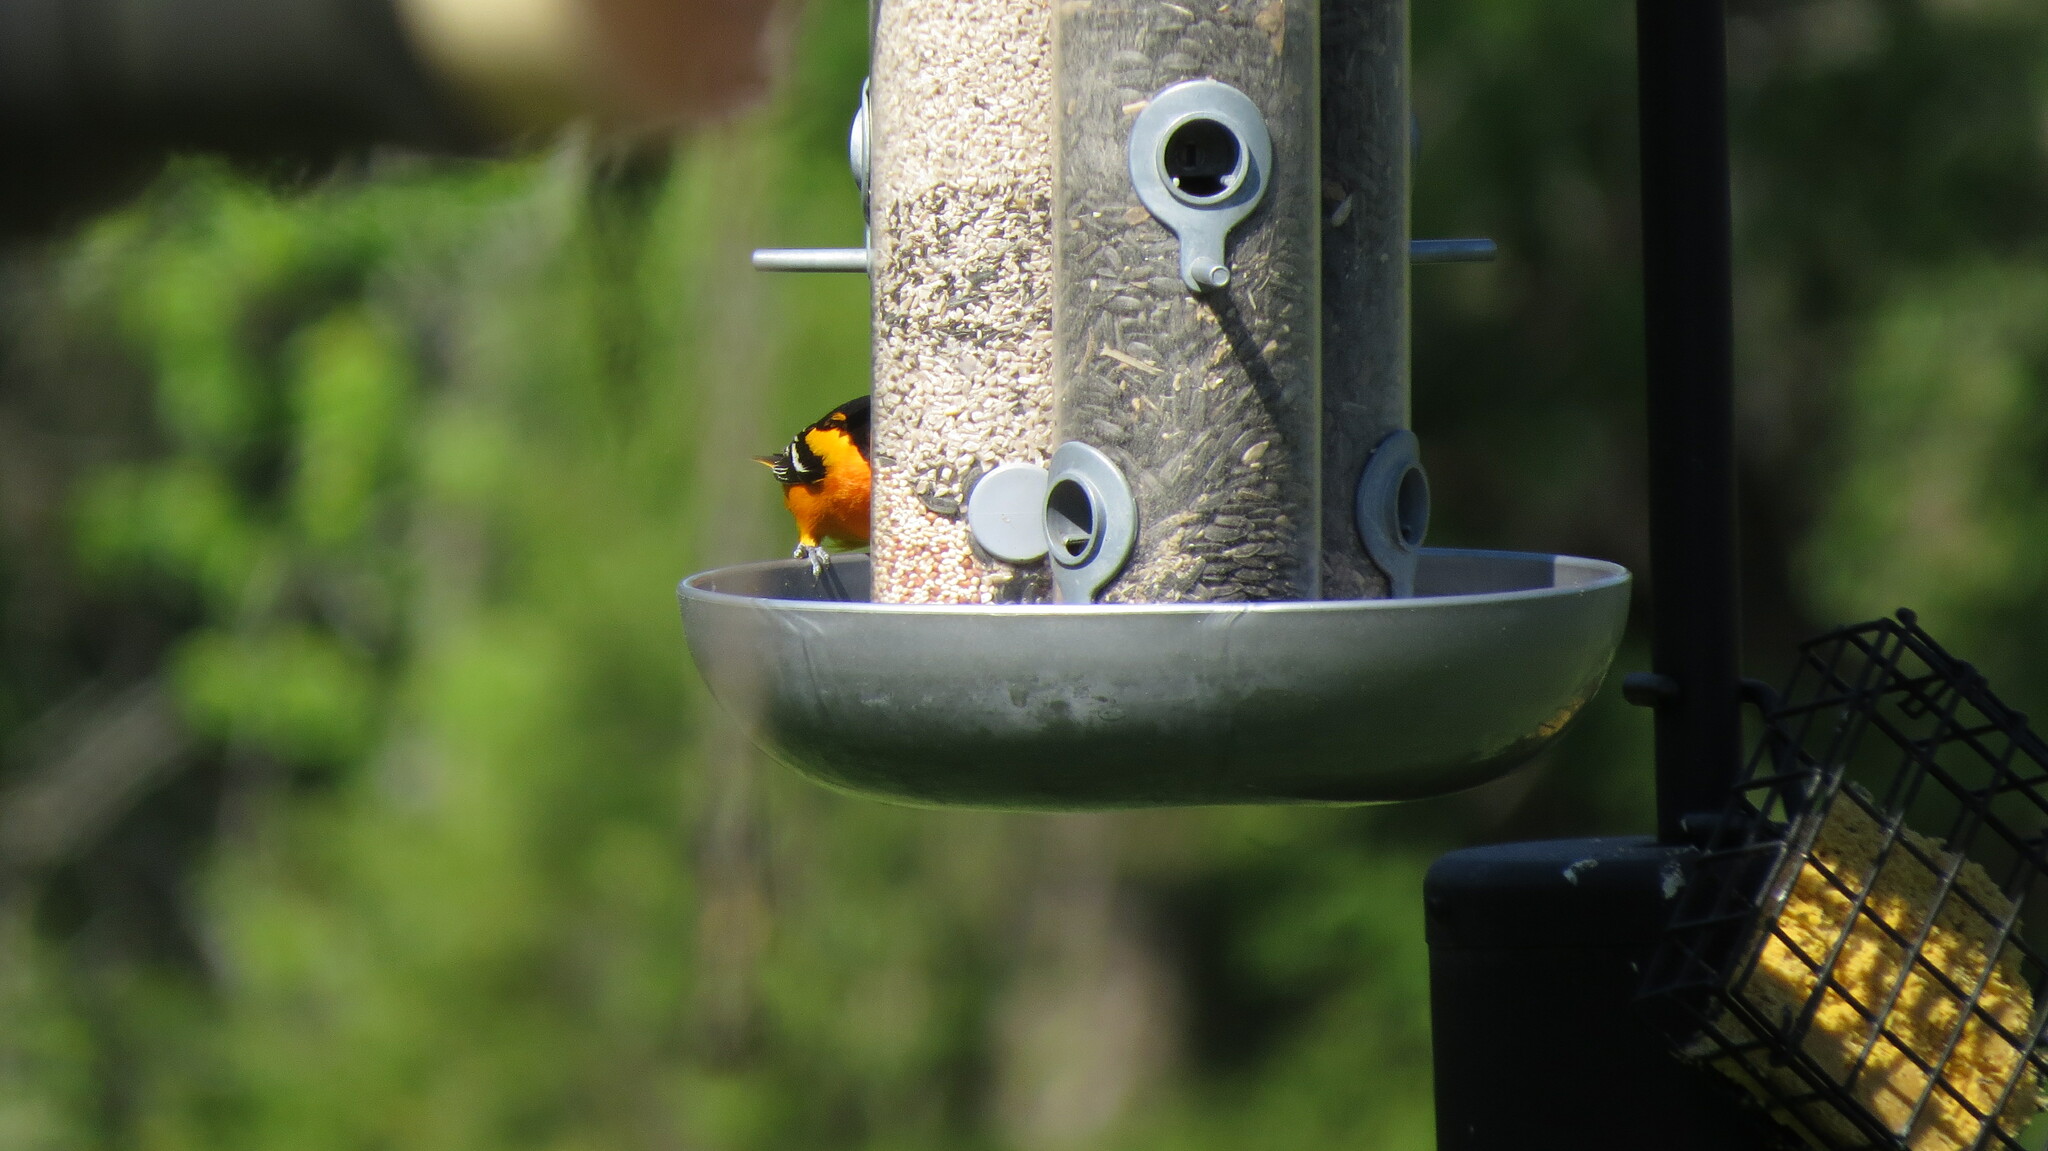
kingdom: Animalia
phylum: Chordata
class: Aves
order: Passeriformes
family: Icteridae
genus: Icterus
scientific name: Icterus galbula
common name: Baltimore oriole
